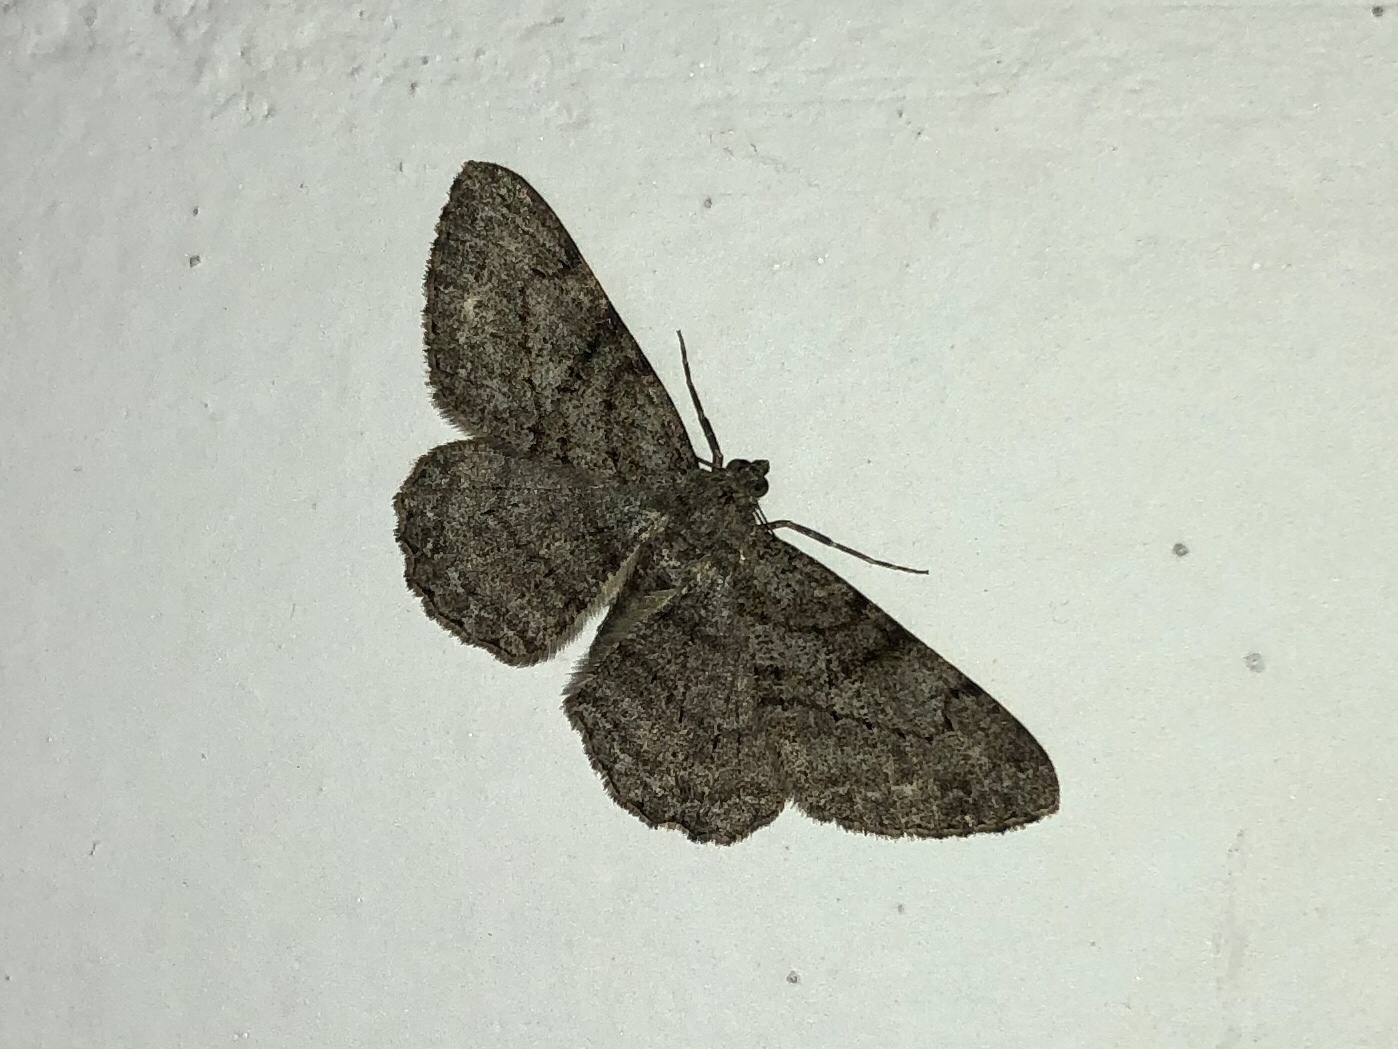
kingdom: Animalia
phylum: Arthropoda
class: Insecta
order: Lepidoptera
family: Geometridae
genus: Peribatodes
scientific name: Peribatodes rhomboidaria
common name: Willow beauty
